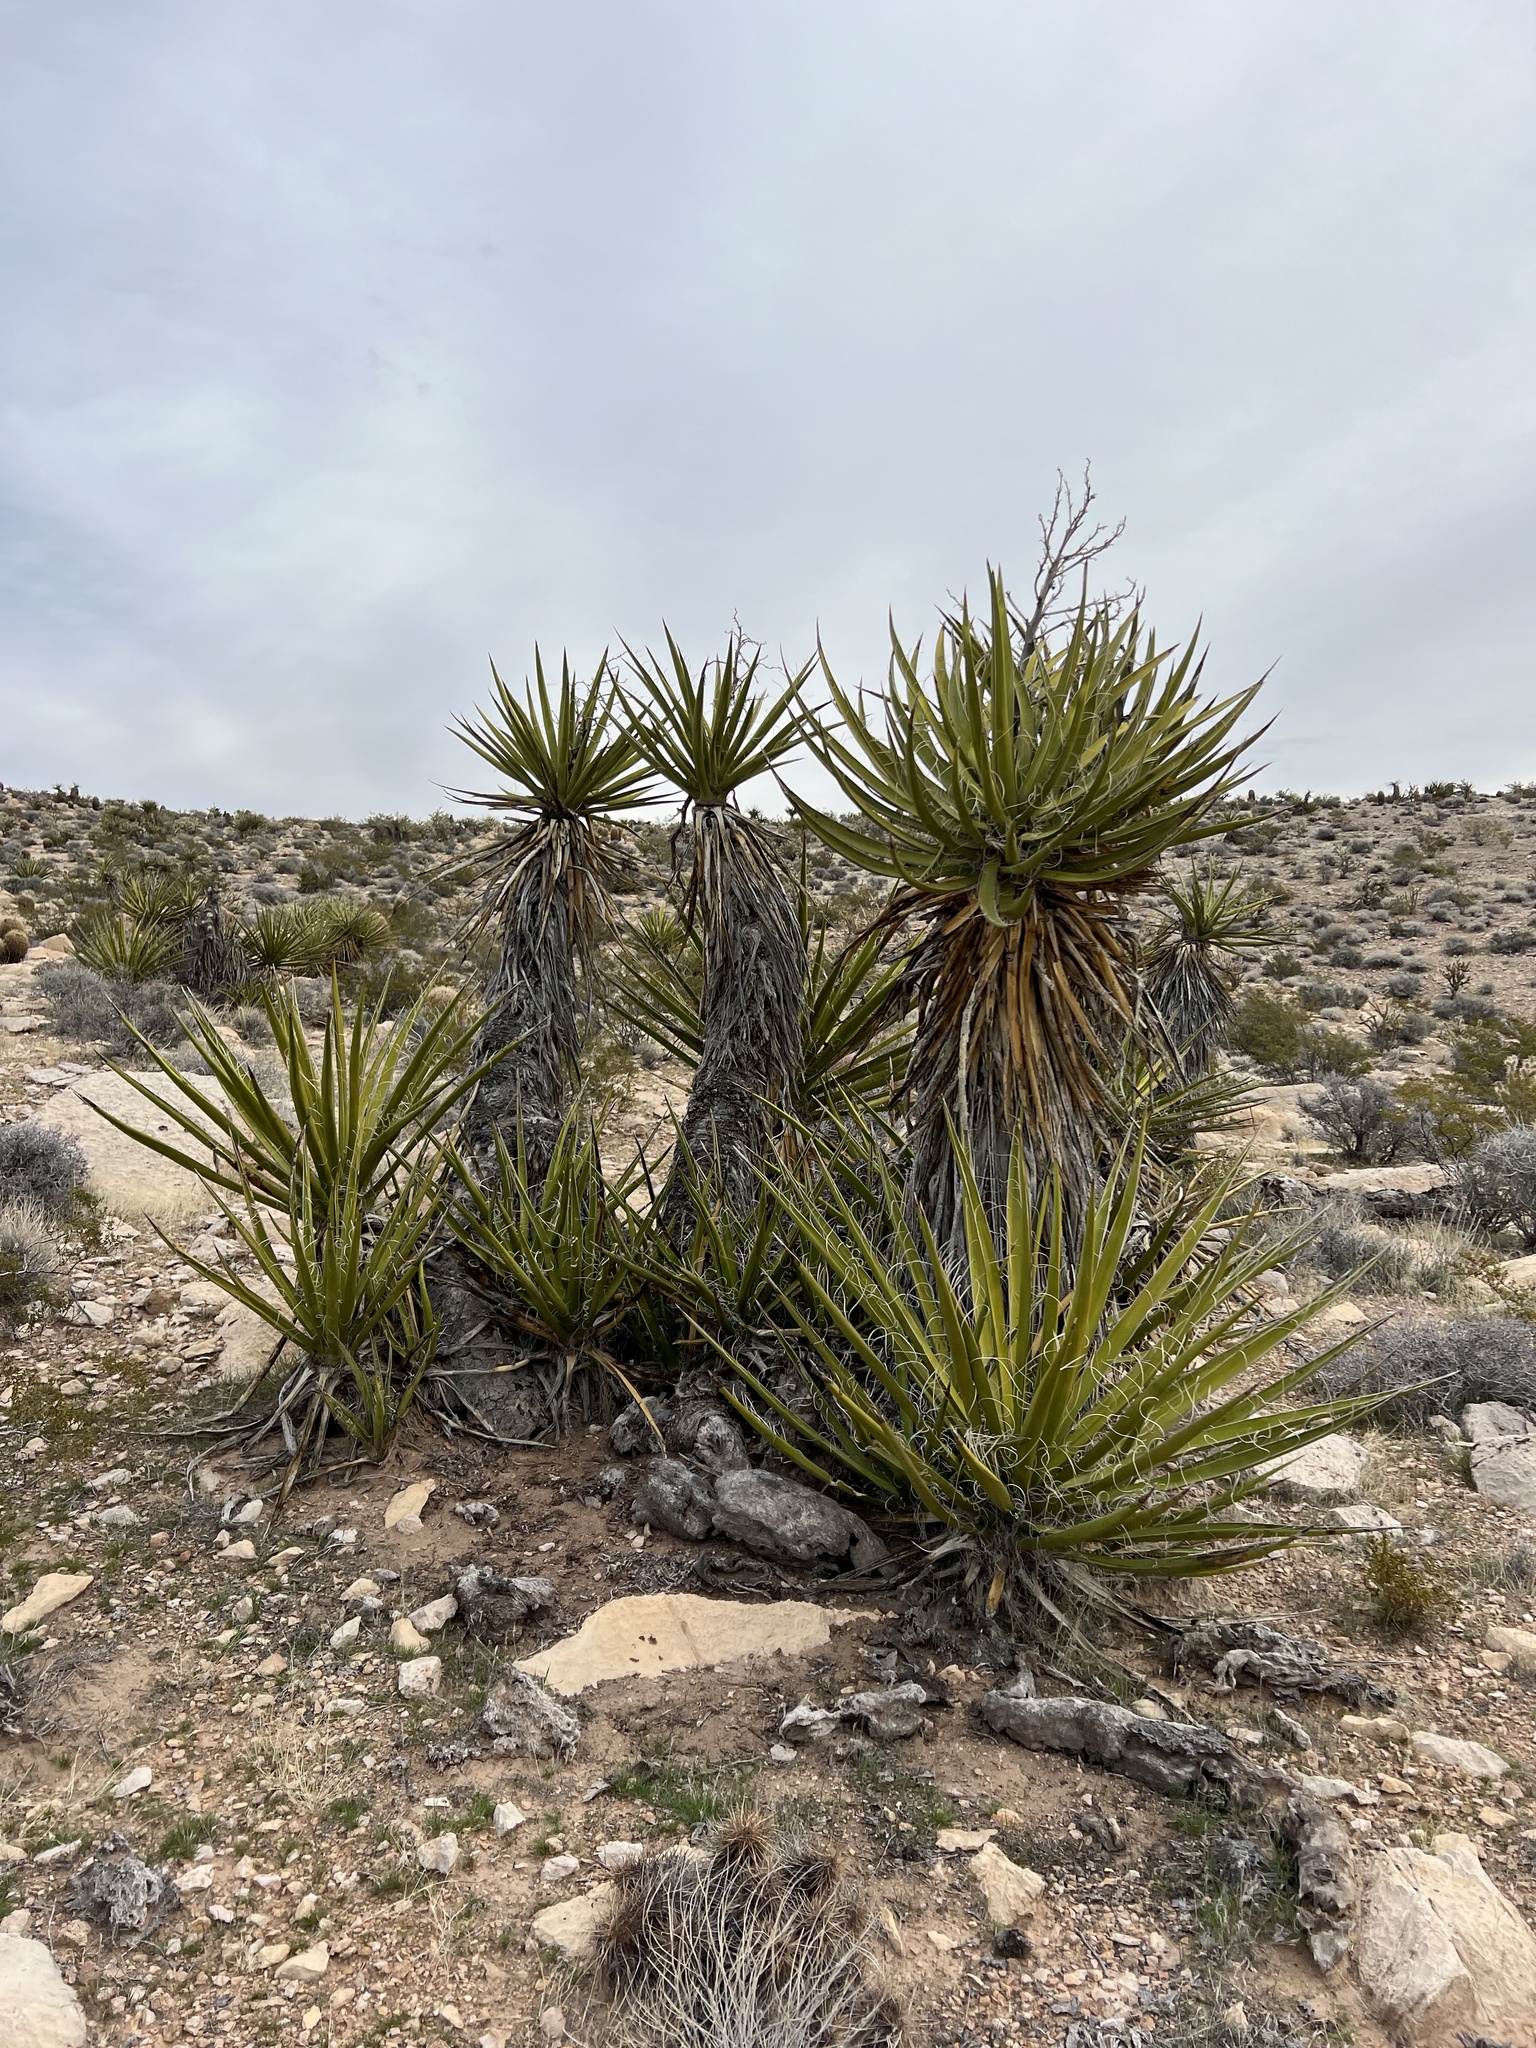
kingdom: Plantae
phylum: Tracheophyta
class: Liliopsida
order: Asparagales
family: Asparagaceae
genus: Yucca
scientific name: Yucca schidigera
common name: Mojave yucca
